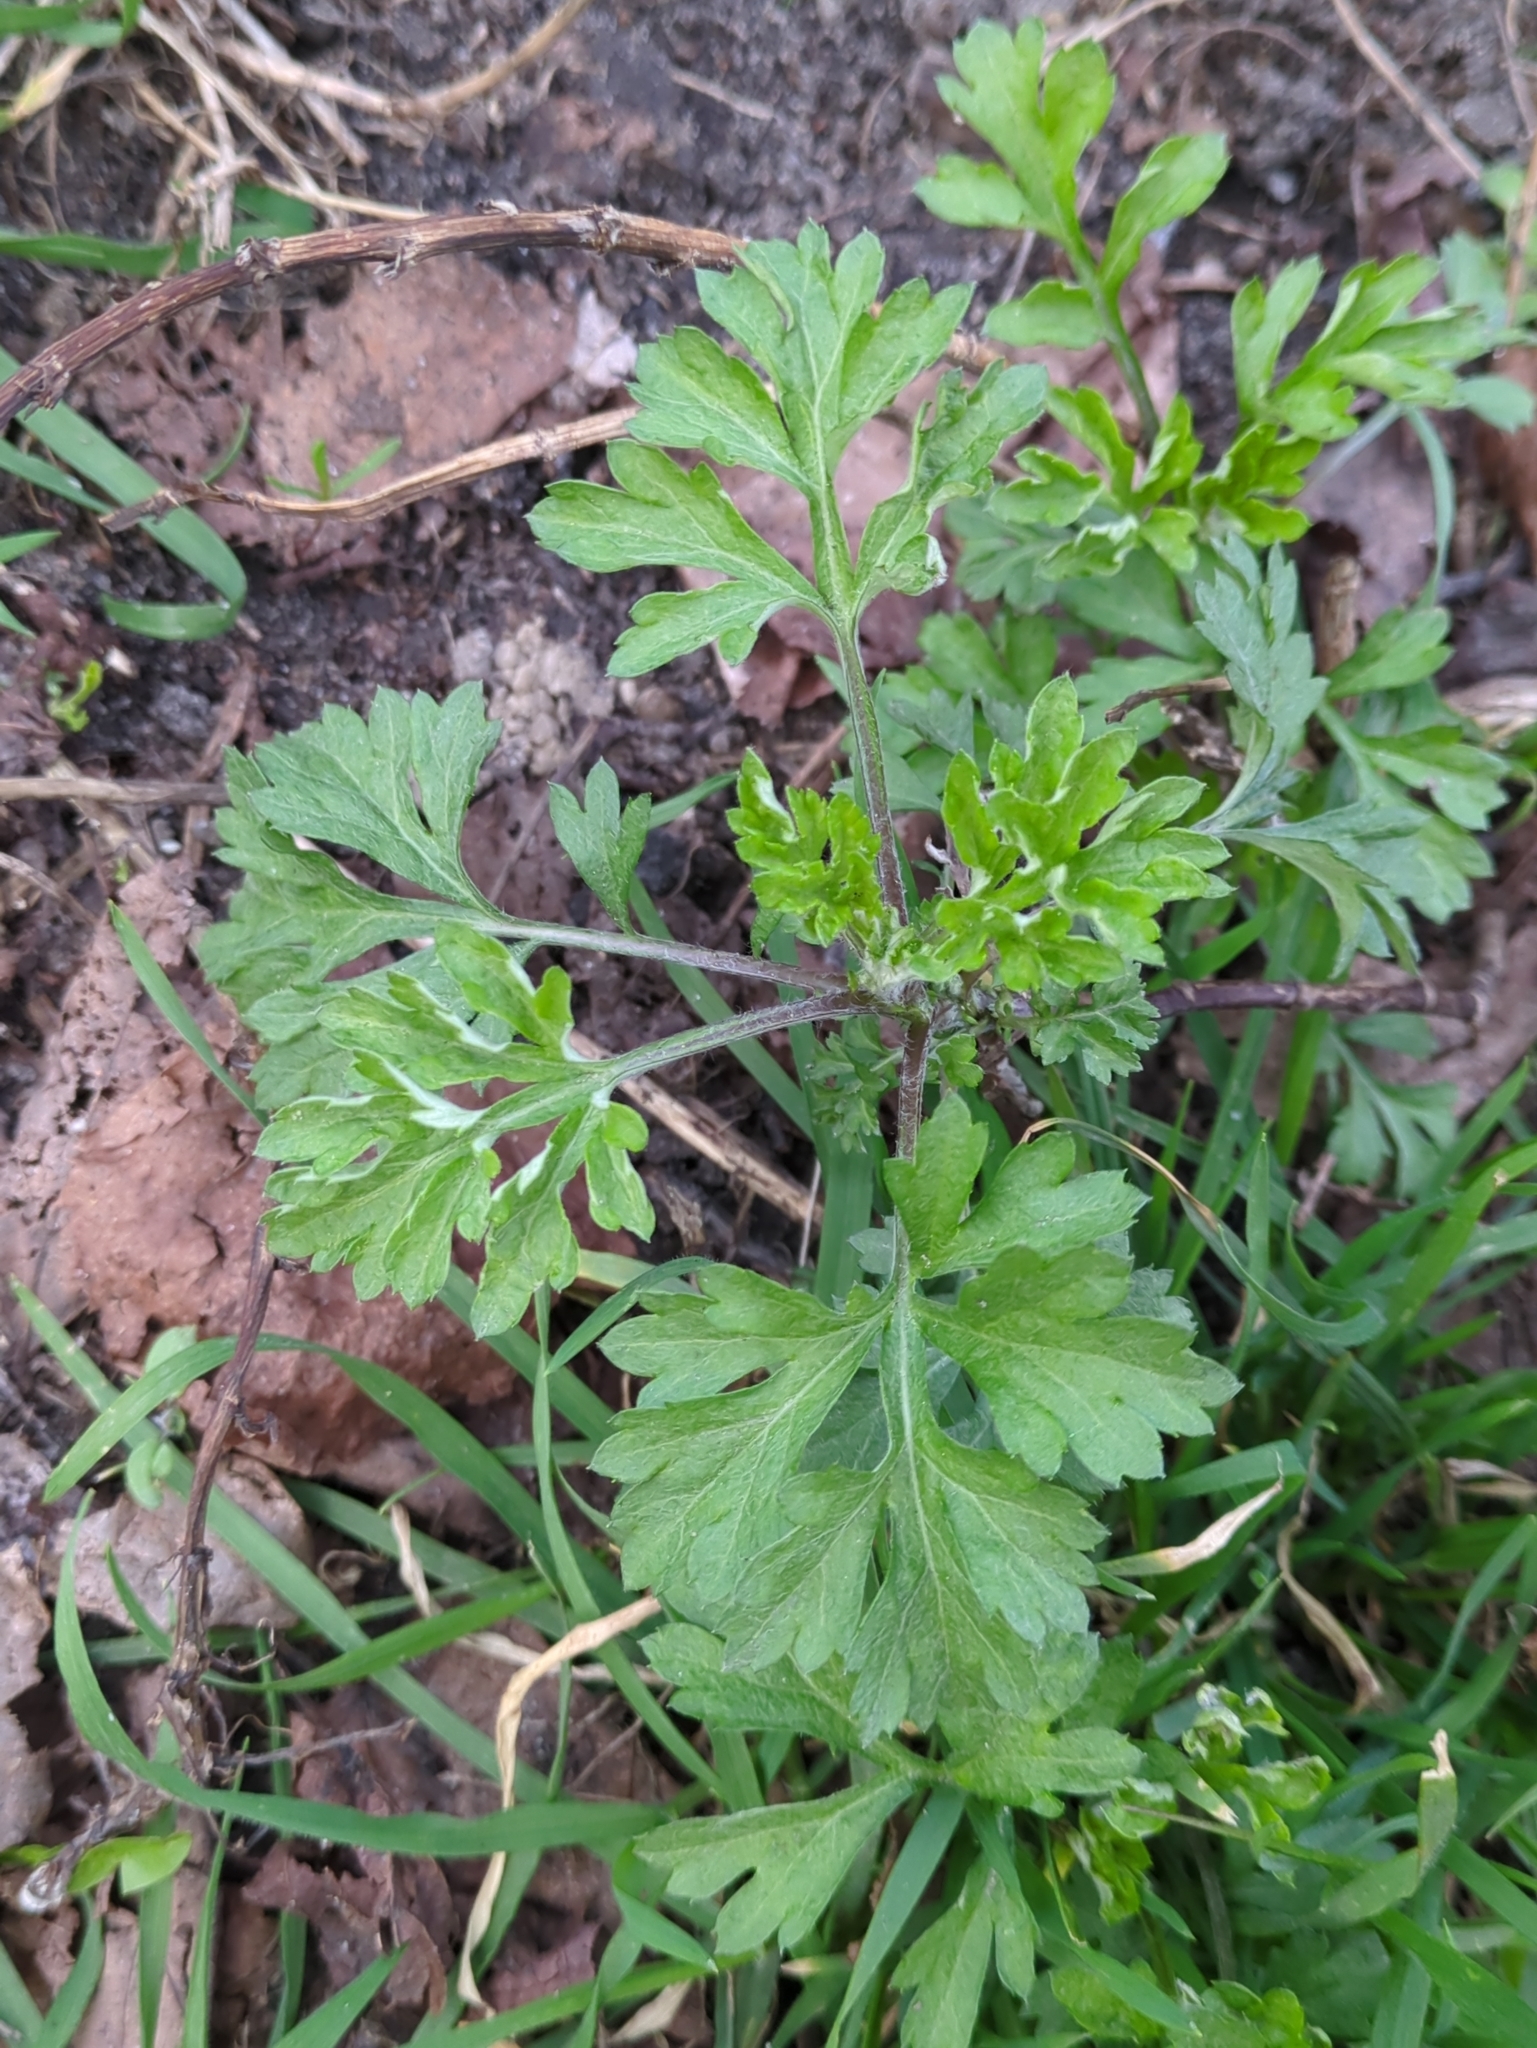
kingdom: Plantae
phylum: Tracheophyta
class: Magnoliopsida
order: Asterales
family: Asteraceae
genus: Artemisia
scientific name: Artemisia vulgaris
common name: Mugwort
